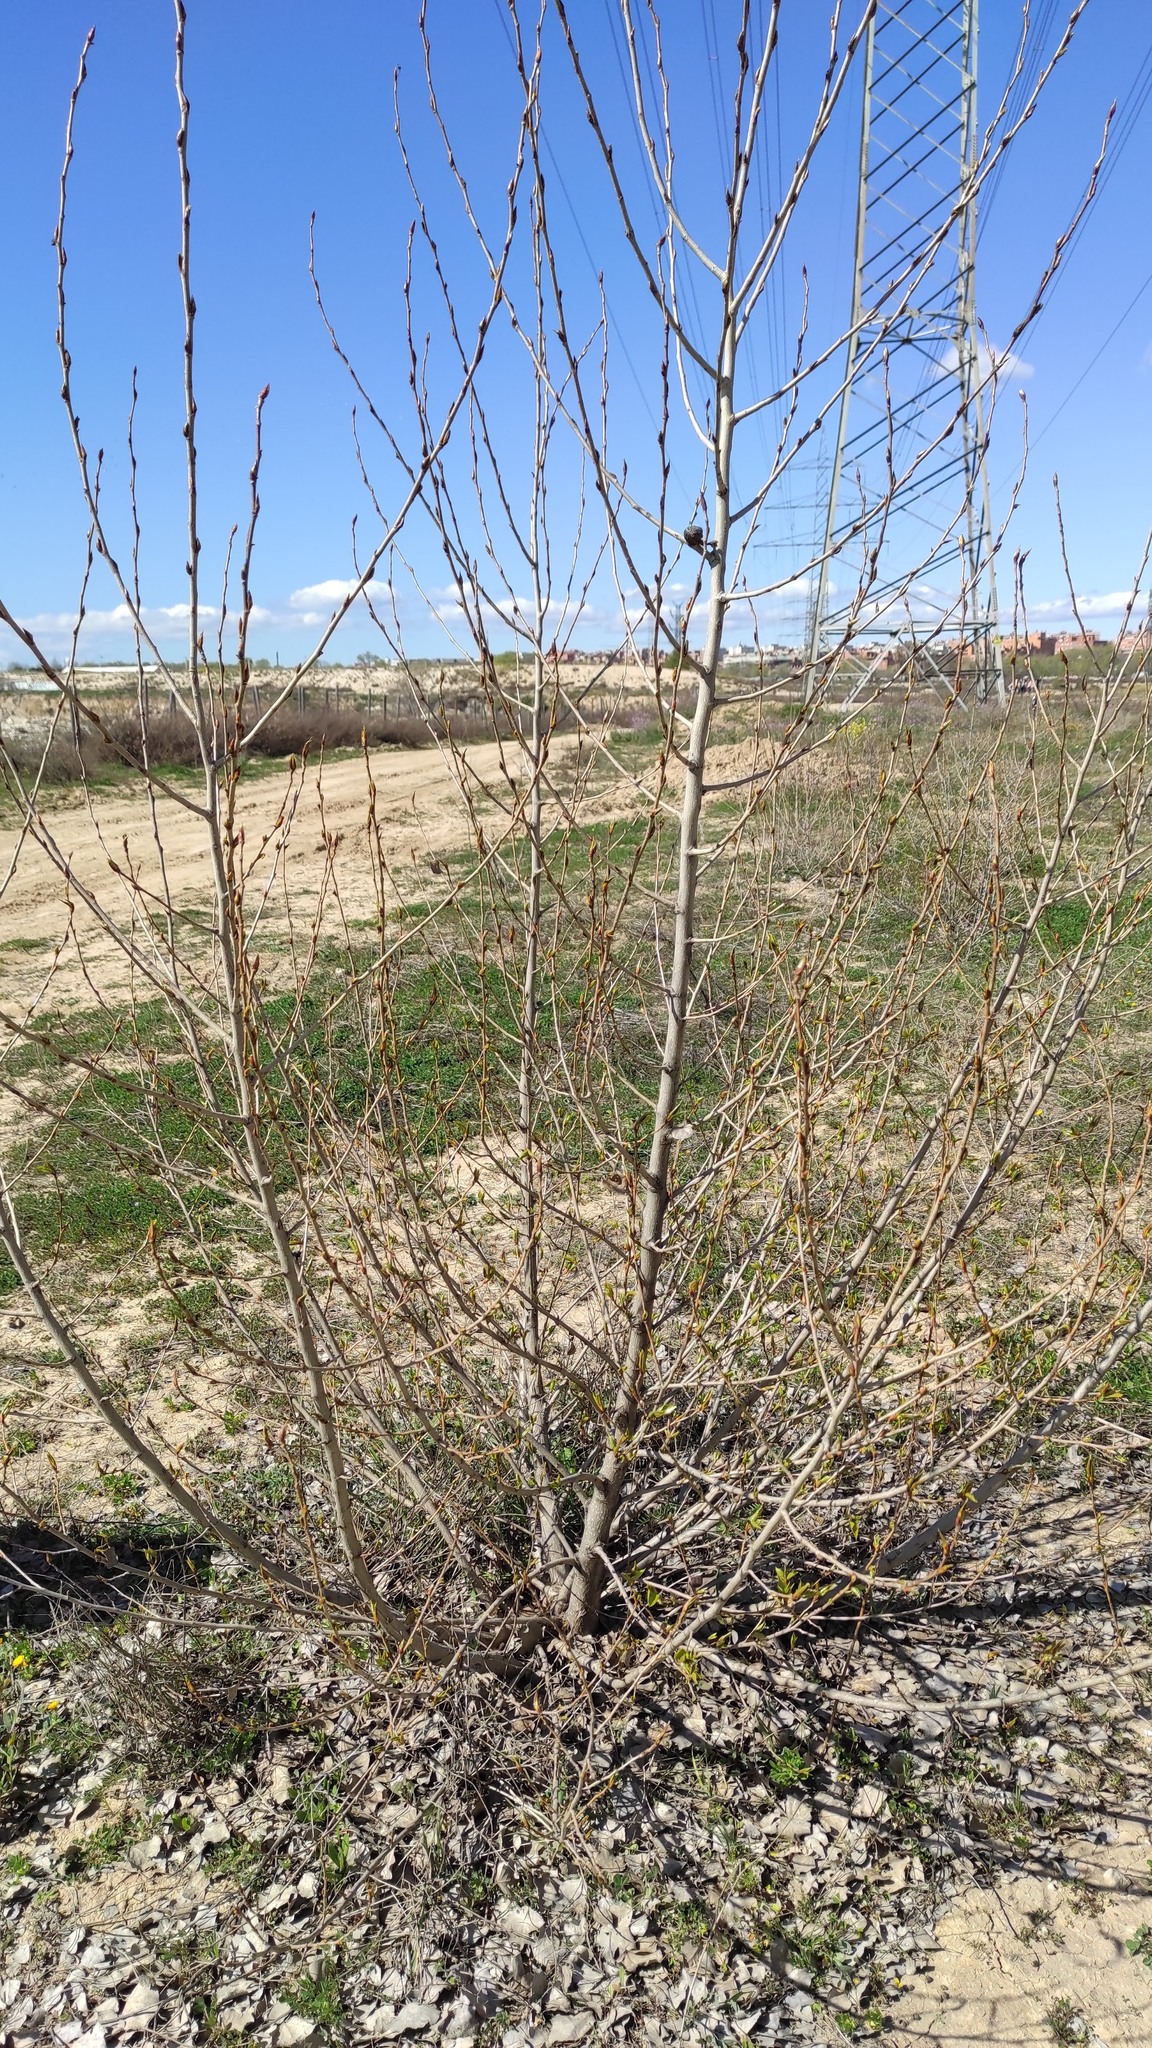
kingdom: Plantae
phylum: Tracheophyta
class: Magnoliopsida
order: Rosales
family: Ulmaceae
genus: Ulmus
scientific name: Ulmus pumila
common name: Siberian elm
